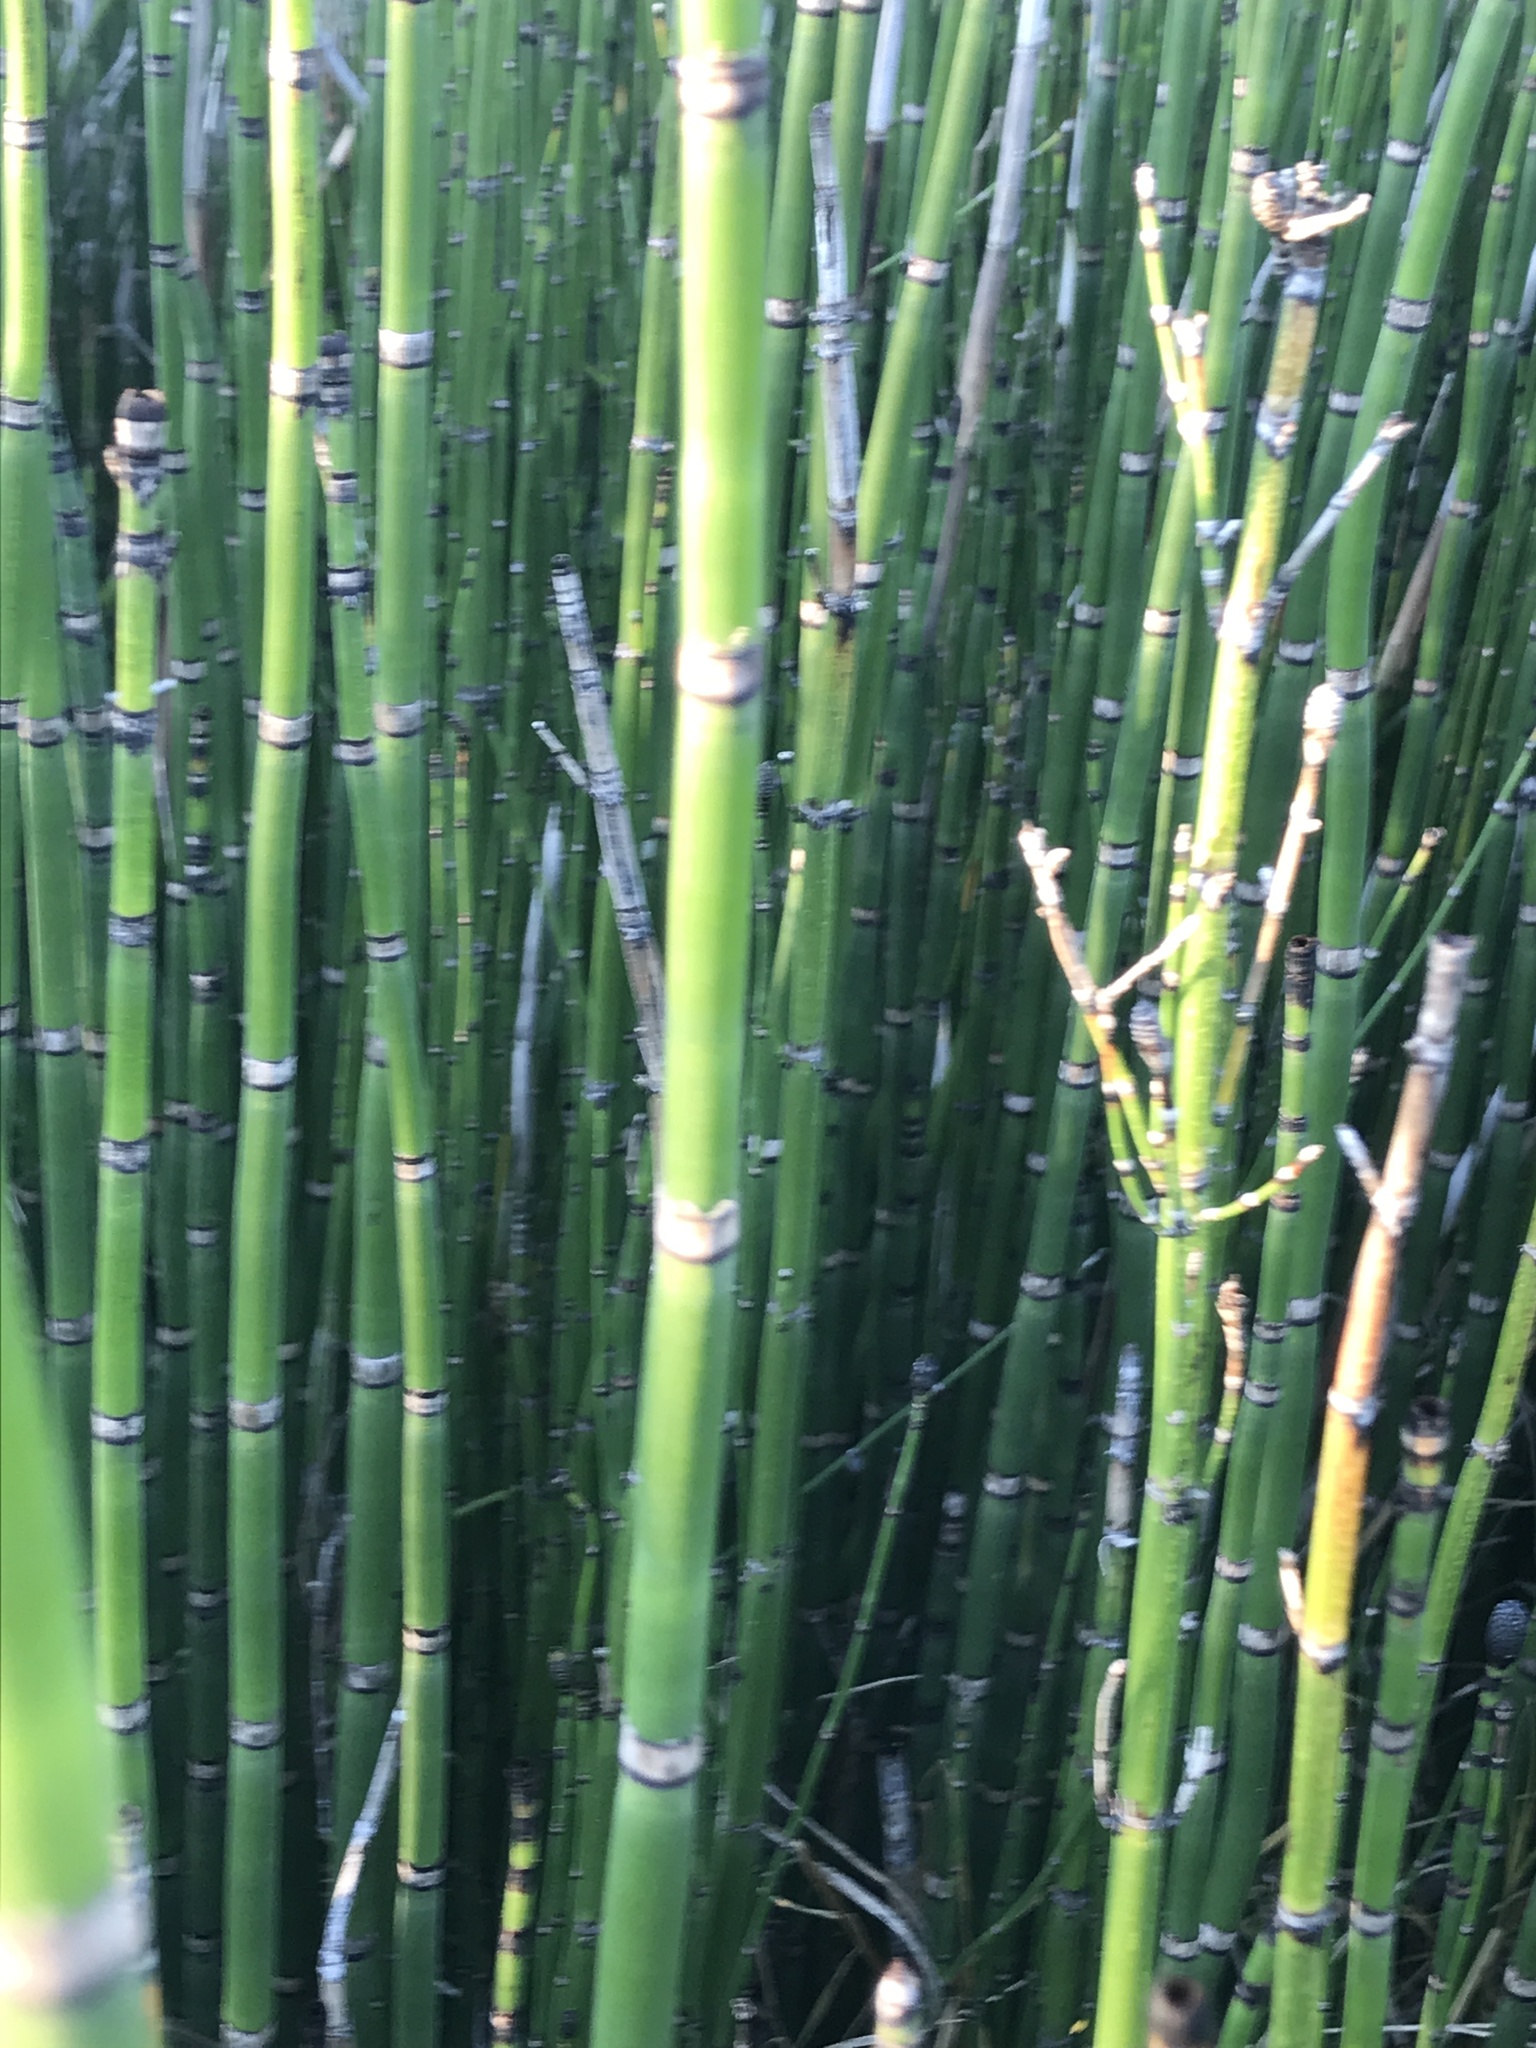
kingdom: Plantae
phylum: Tracheophyta
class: Polypodiopsida
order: Equisetales
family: Equisetaceae
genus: Equisetum
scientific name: Equisetum praealtum
